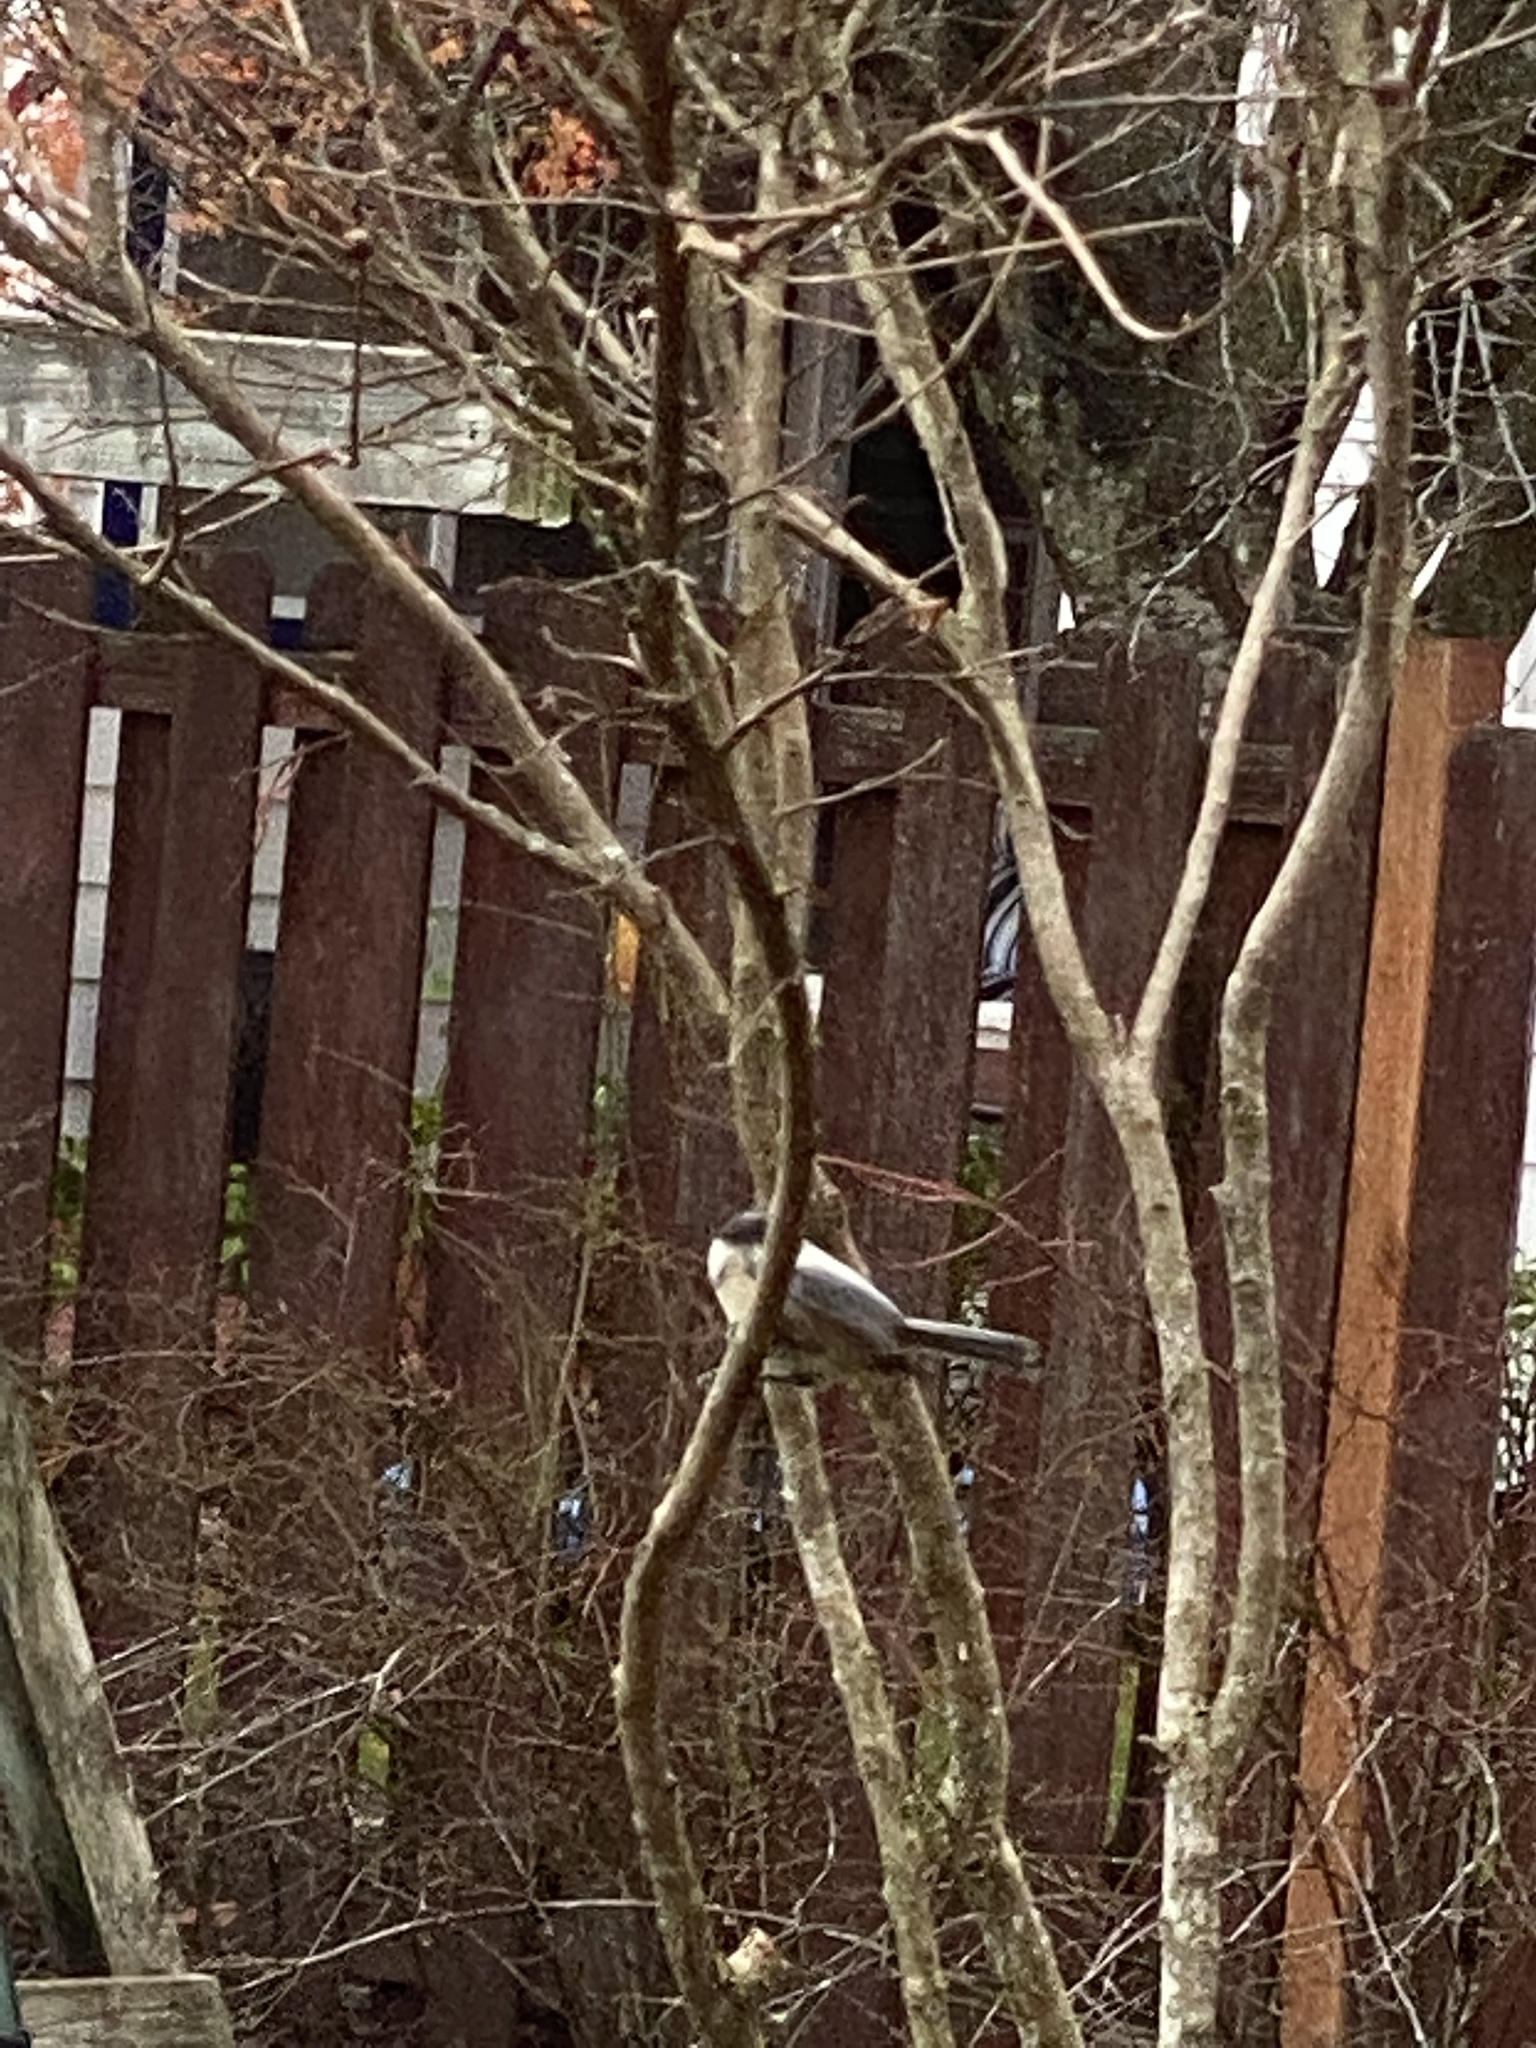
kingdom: Animalia
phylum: Chordata
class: Aves
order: Passeriformes
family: Paridae
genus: Poecile
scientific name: Poecile atricapillus
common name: Black-capped chickadee
